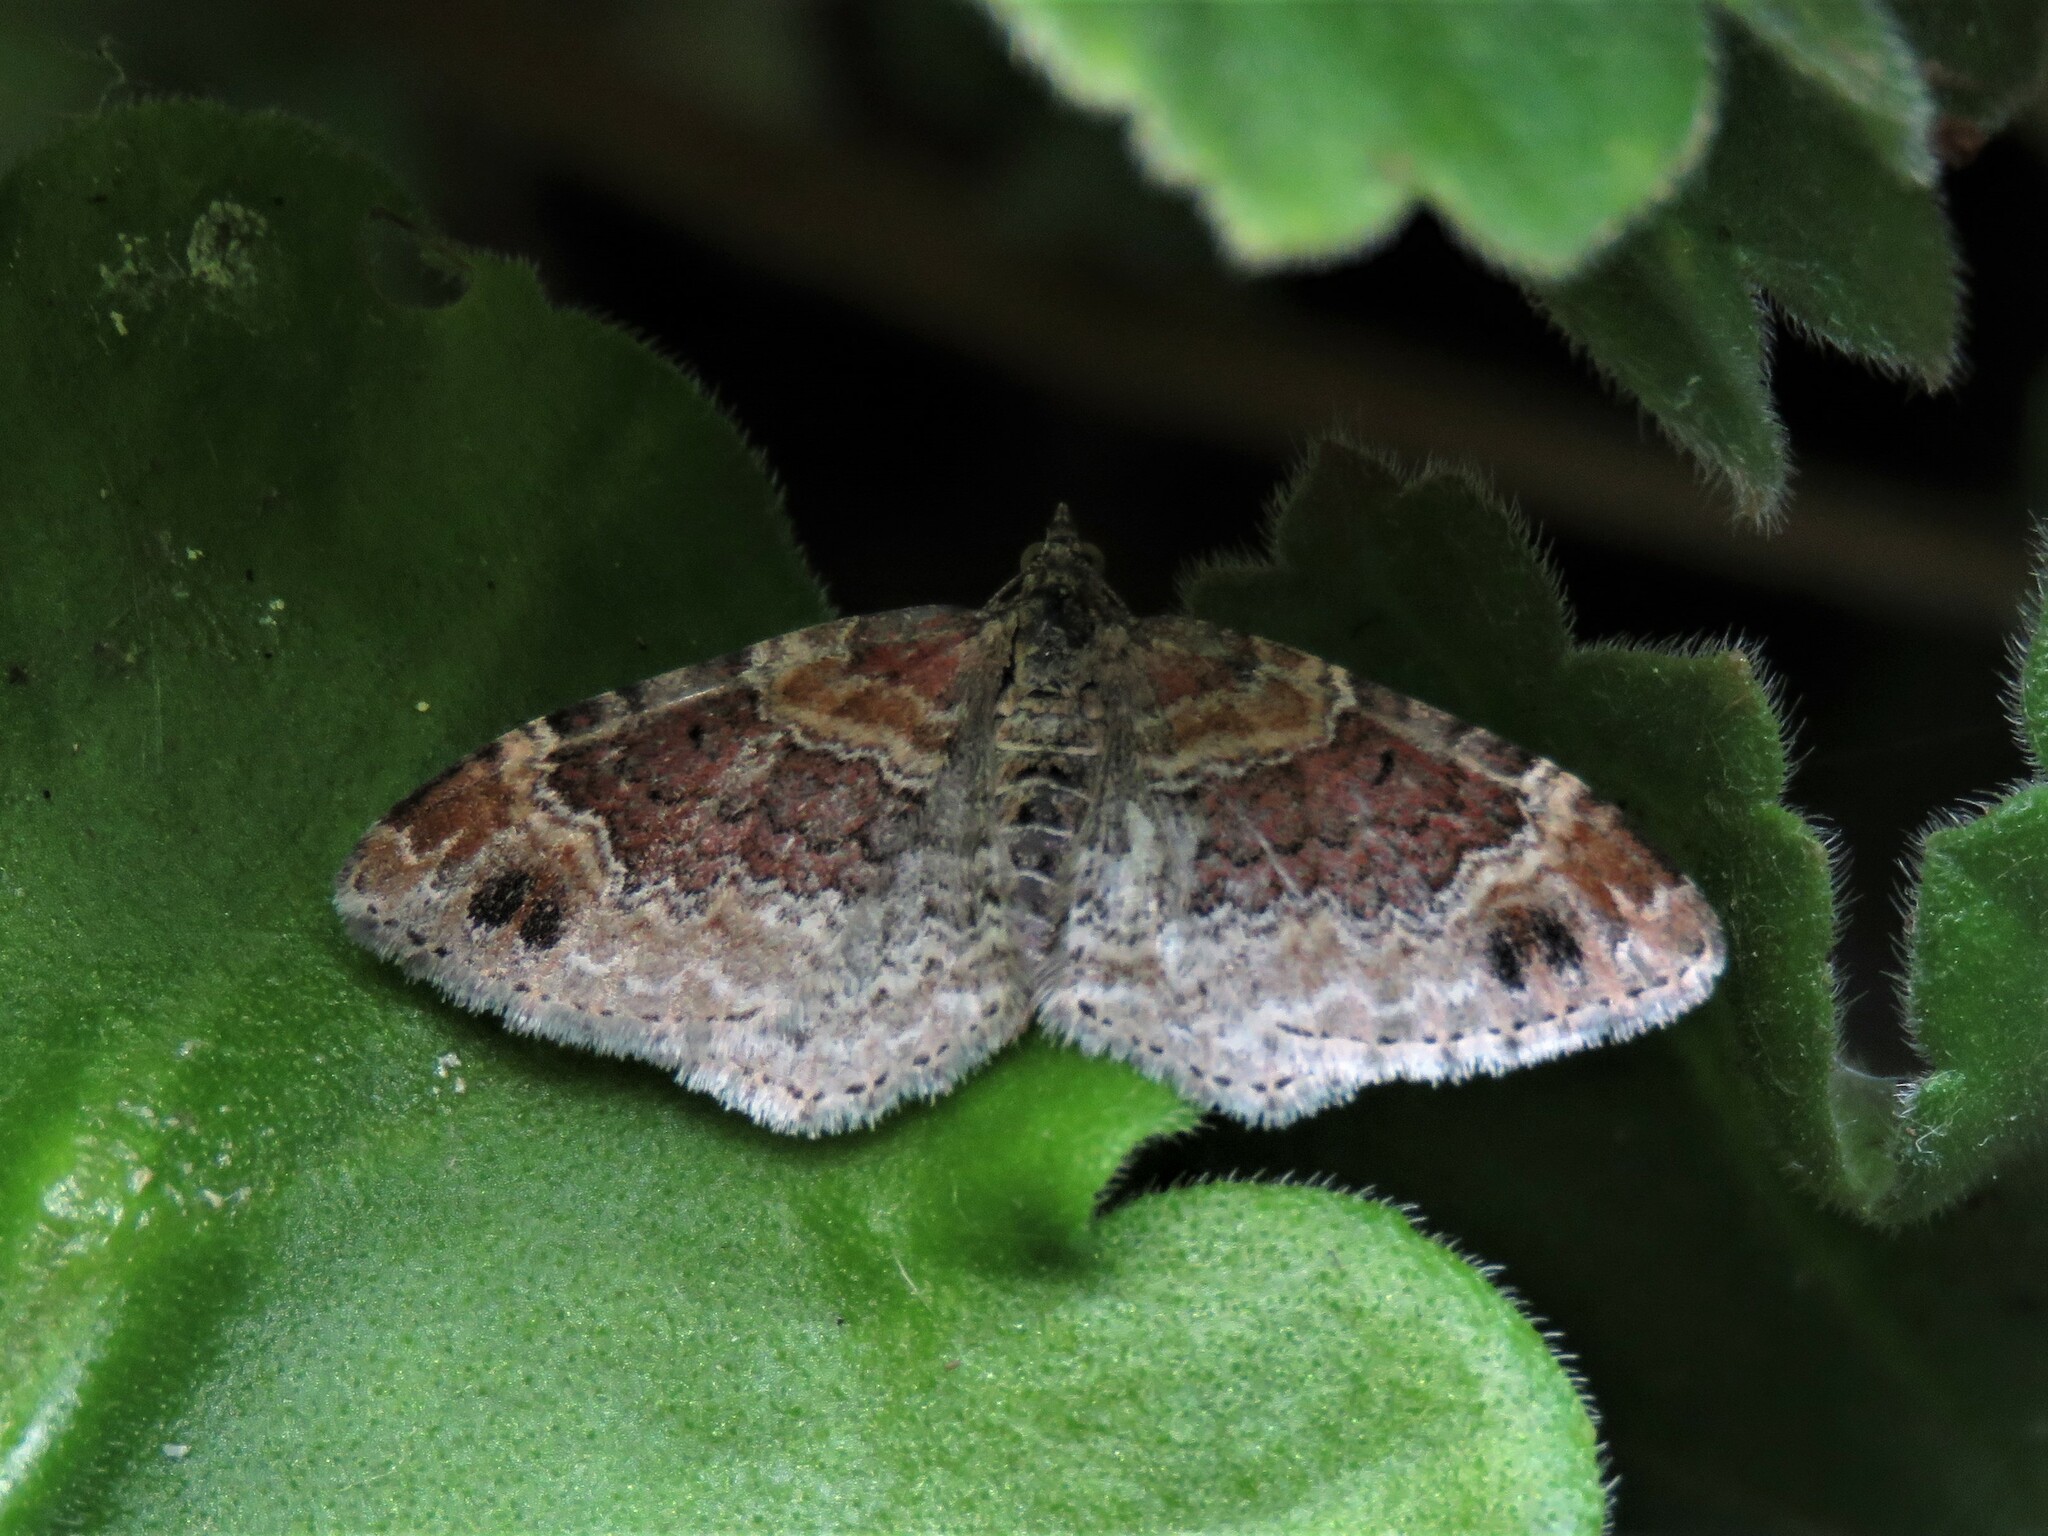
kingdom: Animalia
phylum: Arthropoda
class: Insecta
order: Lepidoptera
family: Geometridae
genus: Xanthorhoe
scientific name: Xanthorhoe spadicearia
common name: Red twin-spot carpet
